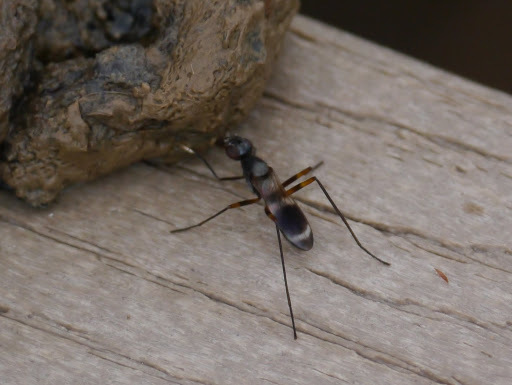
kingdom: Animalia
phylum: Arthropoda
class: Insecta
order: Diptera
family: Micropezidae
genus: Taeniaptera
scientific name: Taeniaptera trivittata
